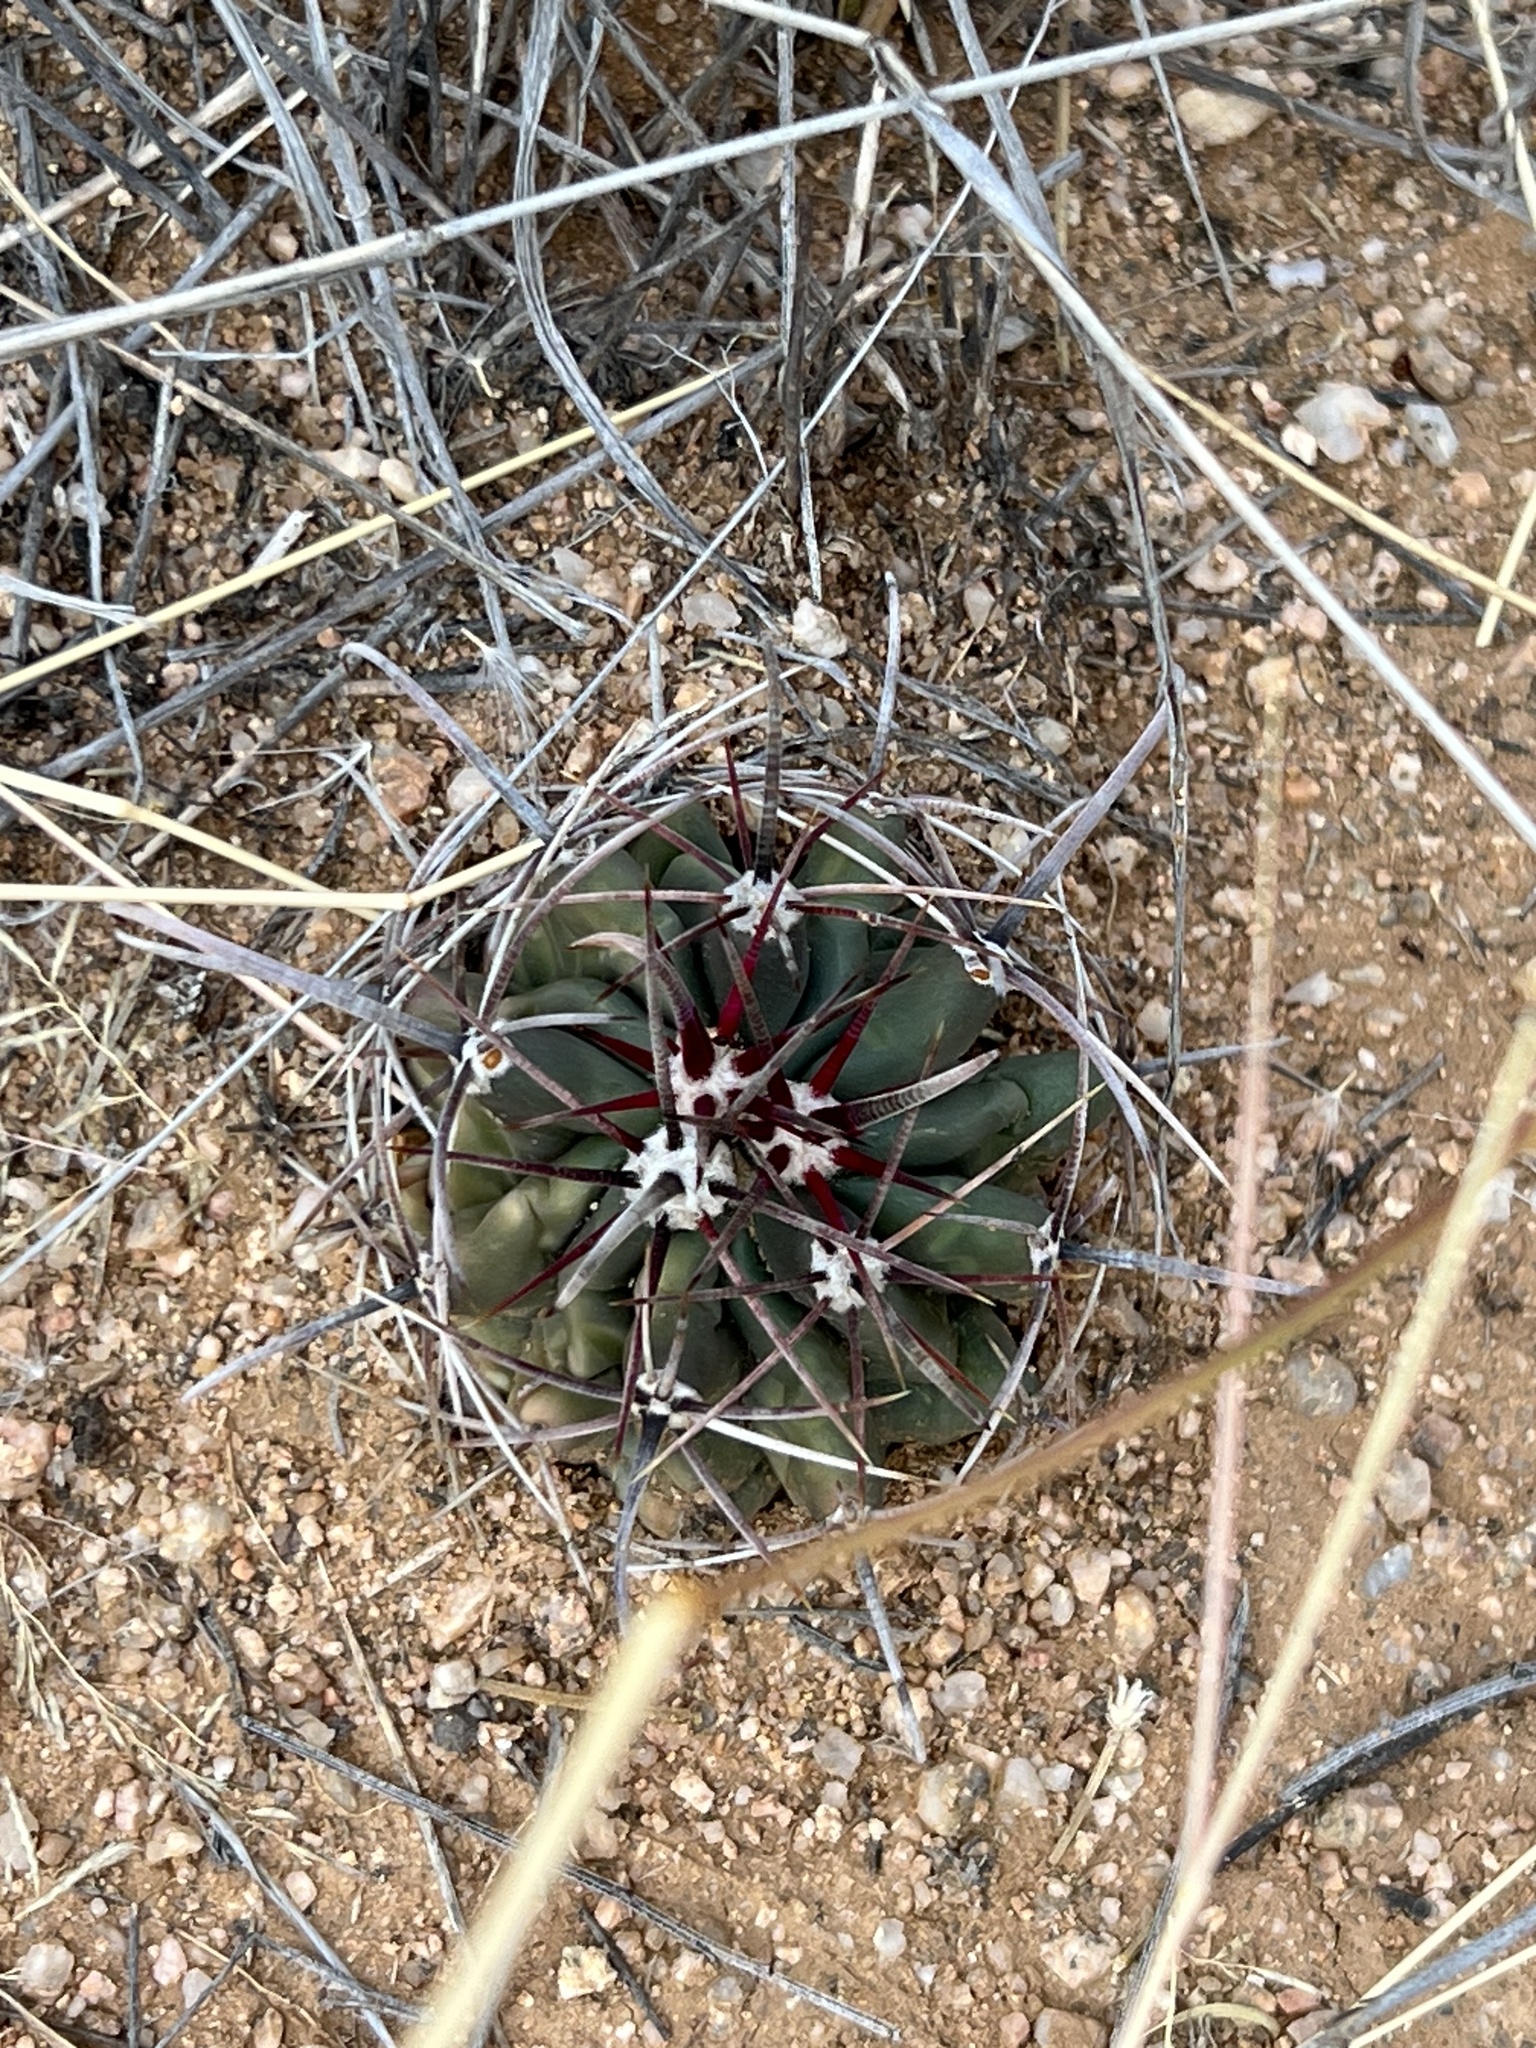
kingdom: Plantae
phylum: Tracheophyta
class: Magnoliopsida
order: Caryophyllales
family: Cactaceae
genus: Ferocactus
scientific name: Ferocactus wislizeni
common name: Candy barrel cactus
